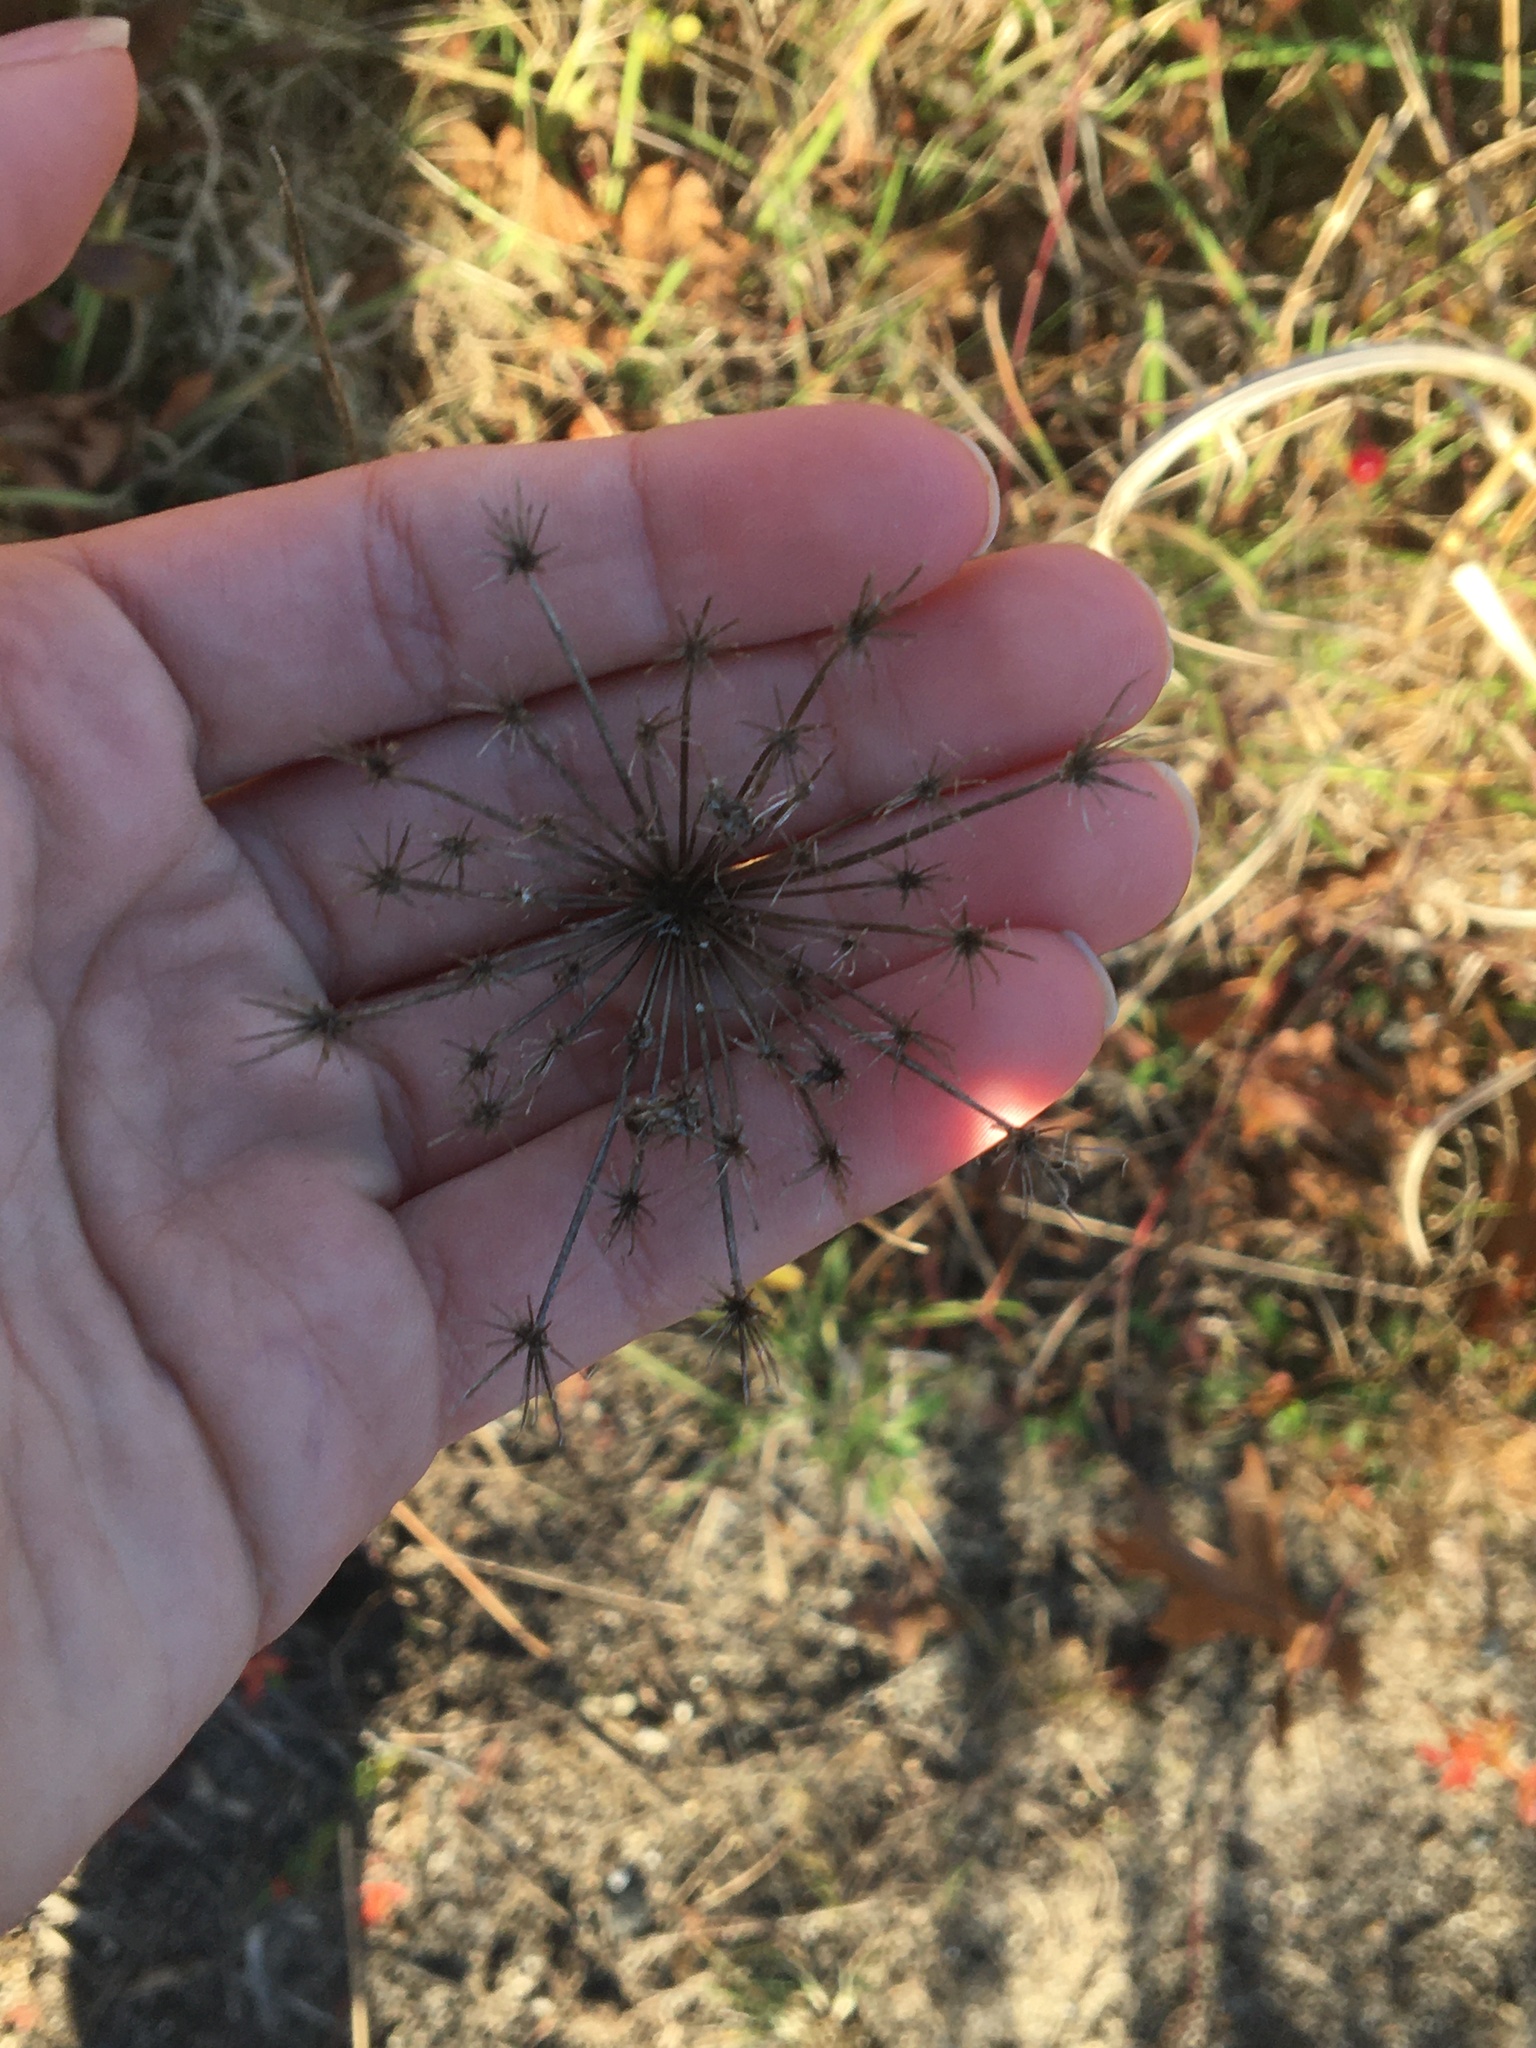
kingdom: Plantae
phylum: Tracheophyta
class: Magnoliopsida
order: Apiales
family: Apiaceae
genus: Daucus
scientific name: Daucus carota
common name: Wild carrot
